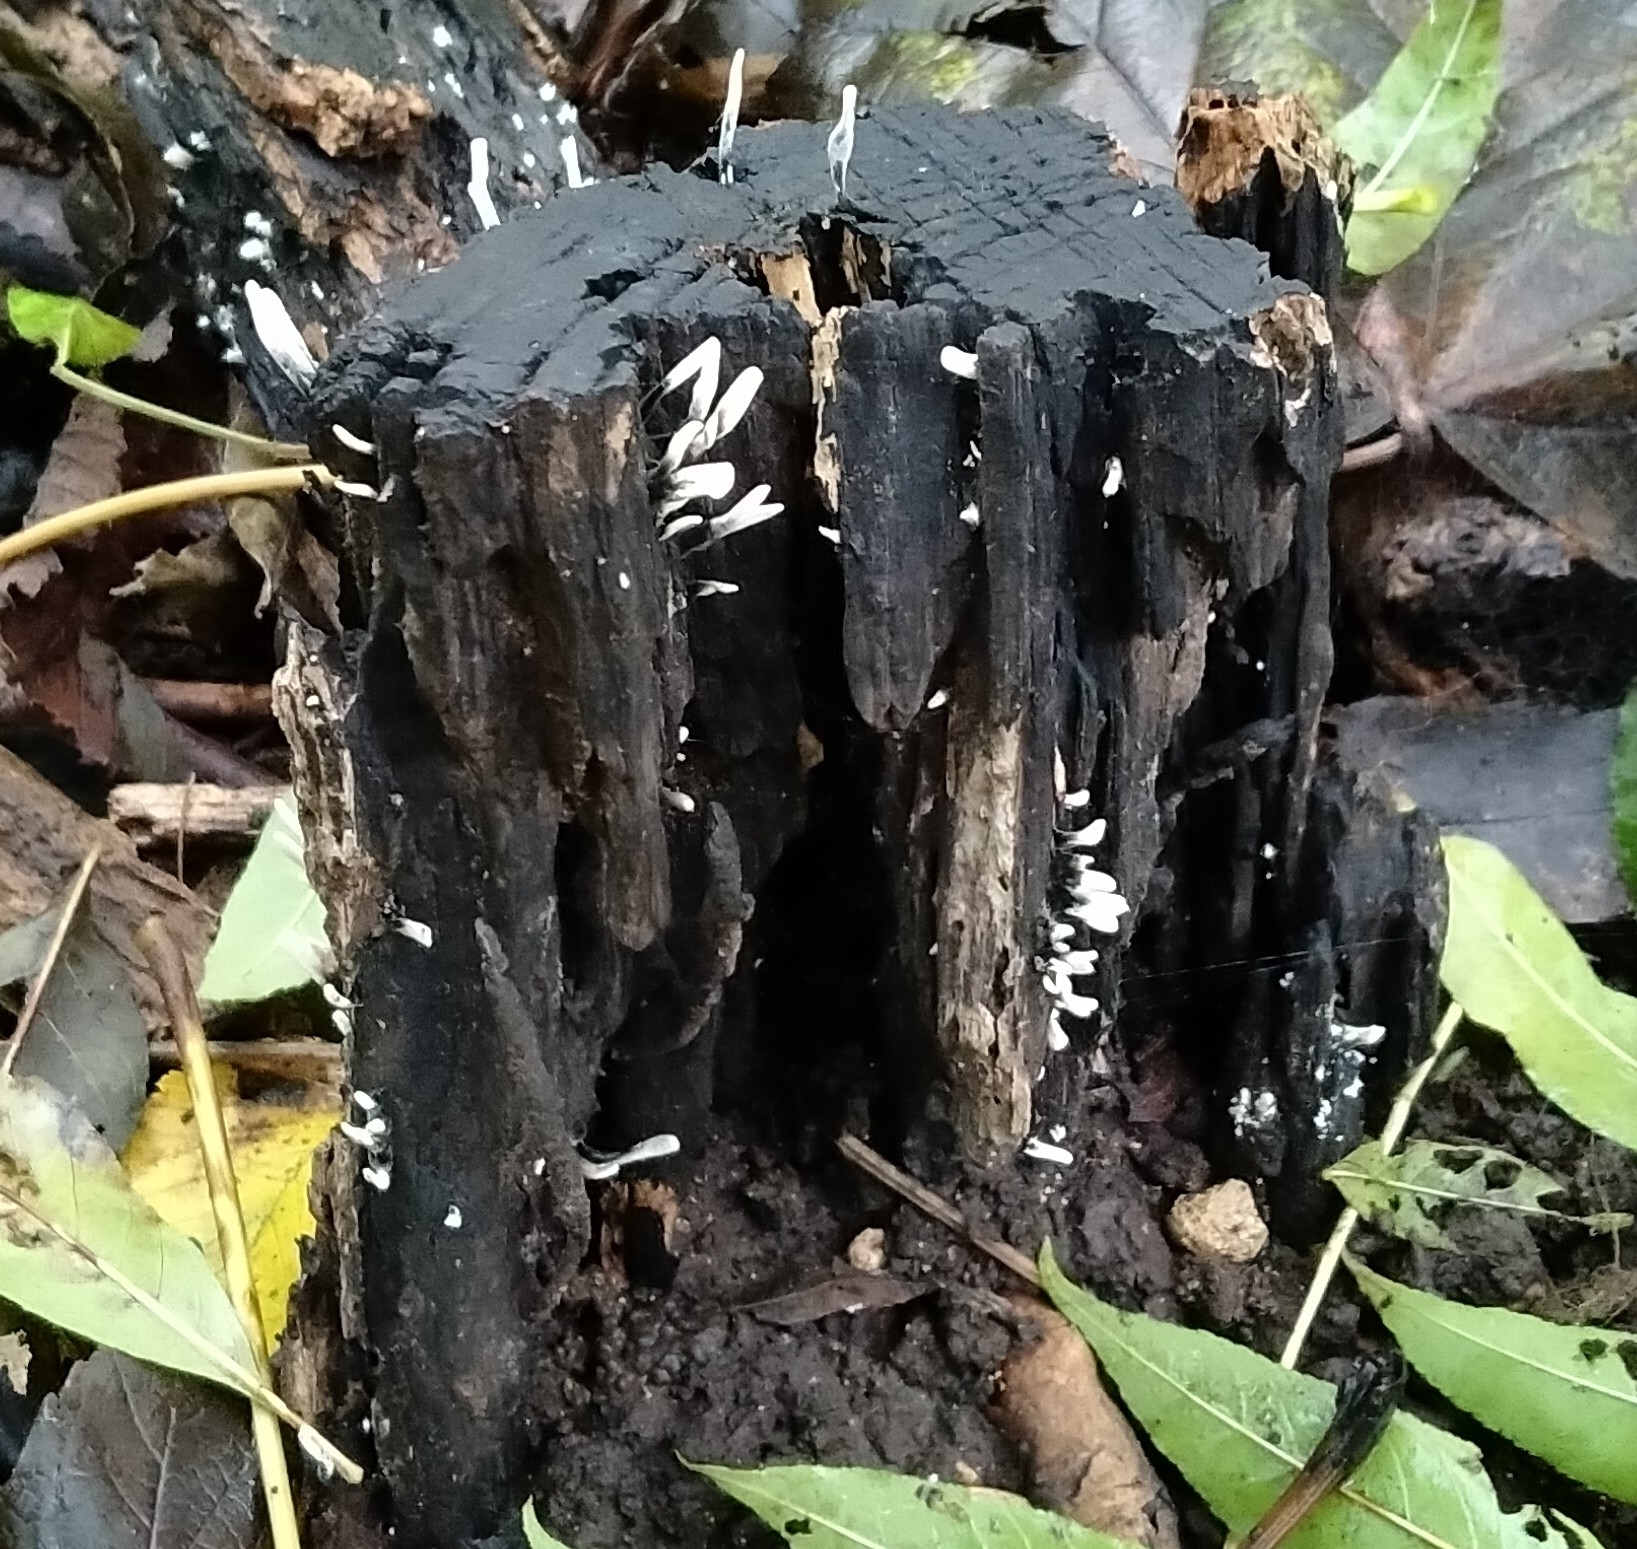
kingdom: Fungi
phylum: Ascomycota
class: Sordariomycetes
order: Xylariales
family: Xylariaceae
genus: Xylaria
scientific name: Xylaria hypoxylon
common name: Candle-snuff fungus
